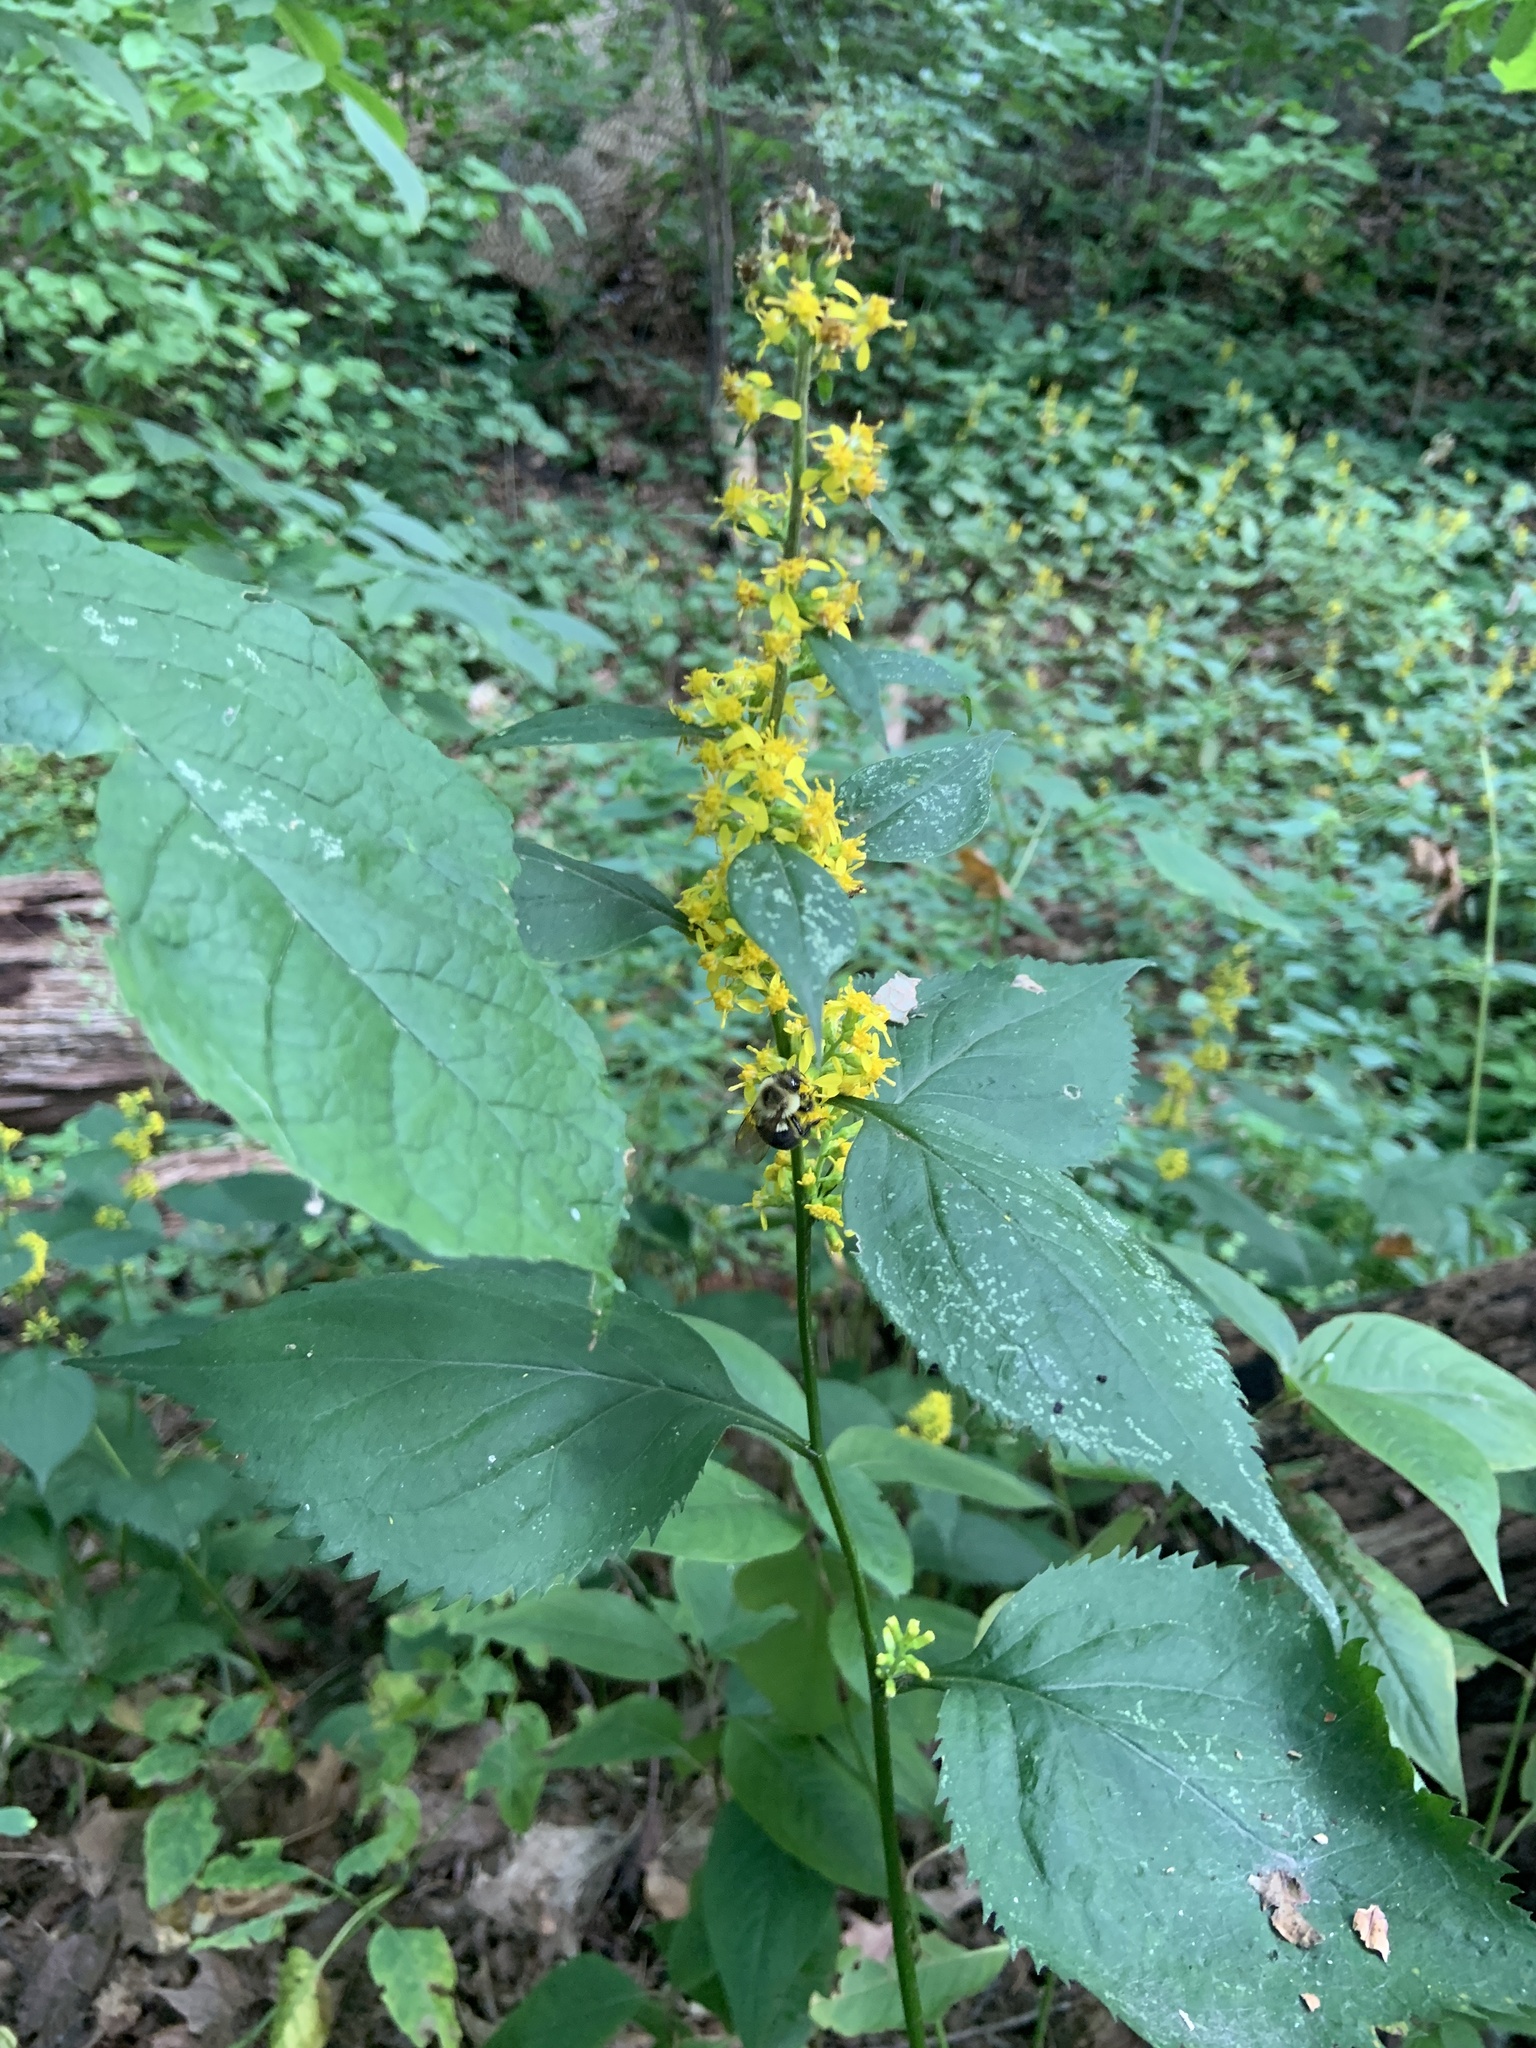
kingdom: Animalia
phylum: Arthropoda
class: Insecta
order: Hymenoptera
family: Apidae
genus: Bombus
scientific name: Bombus impatiens
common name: Common eastern bumble bee
